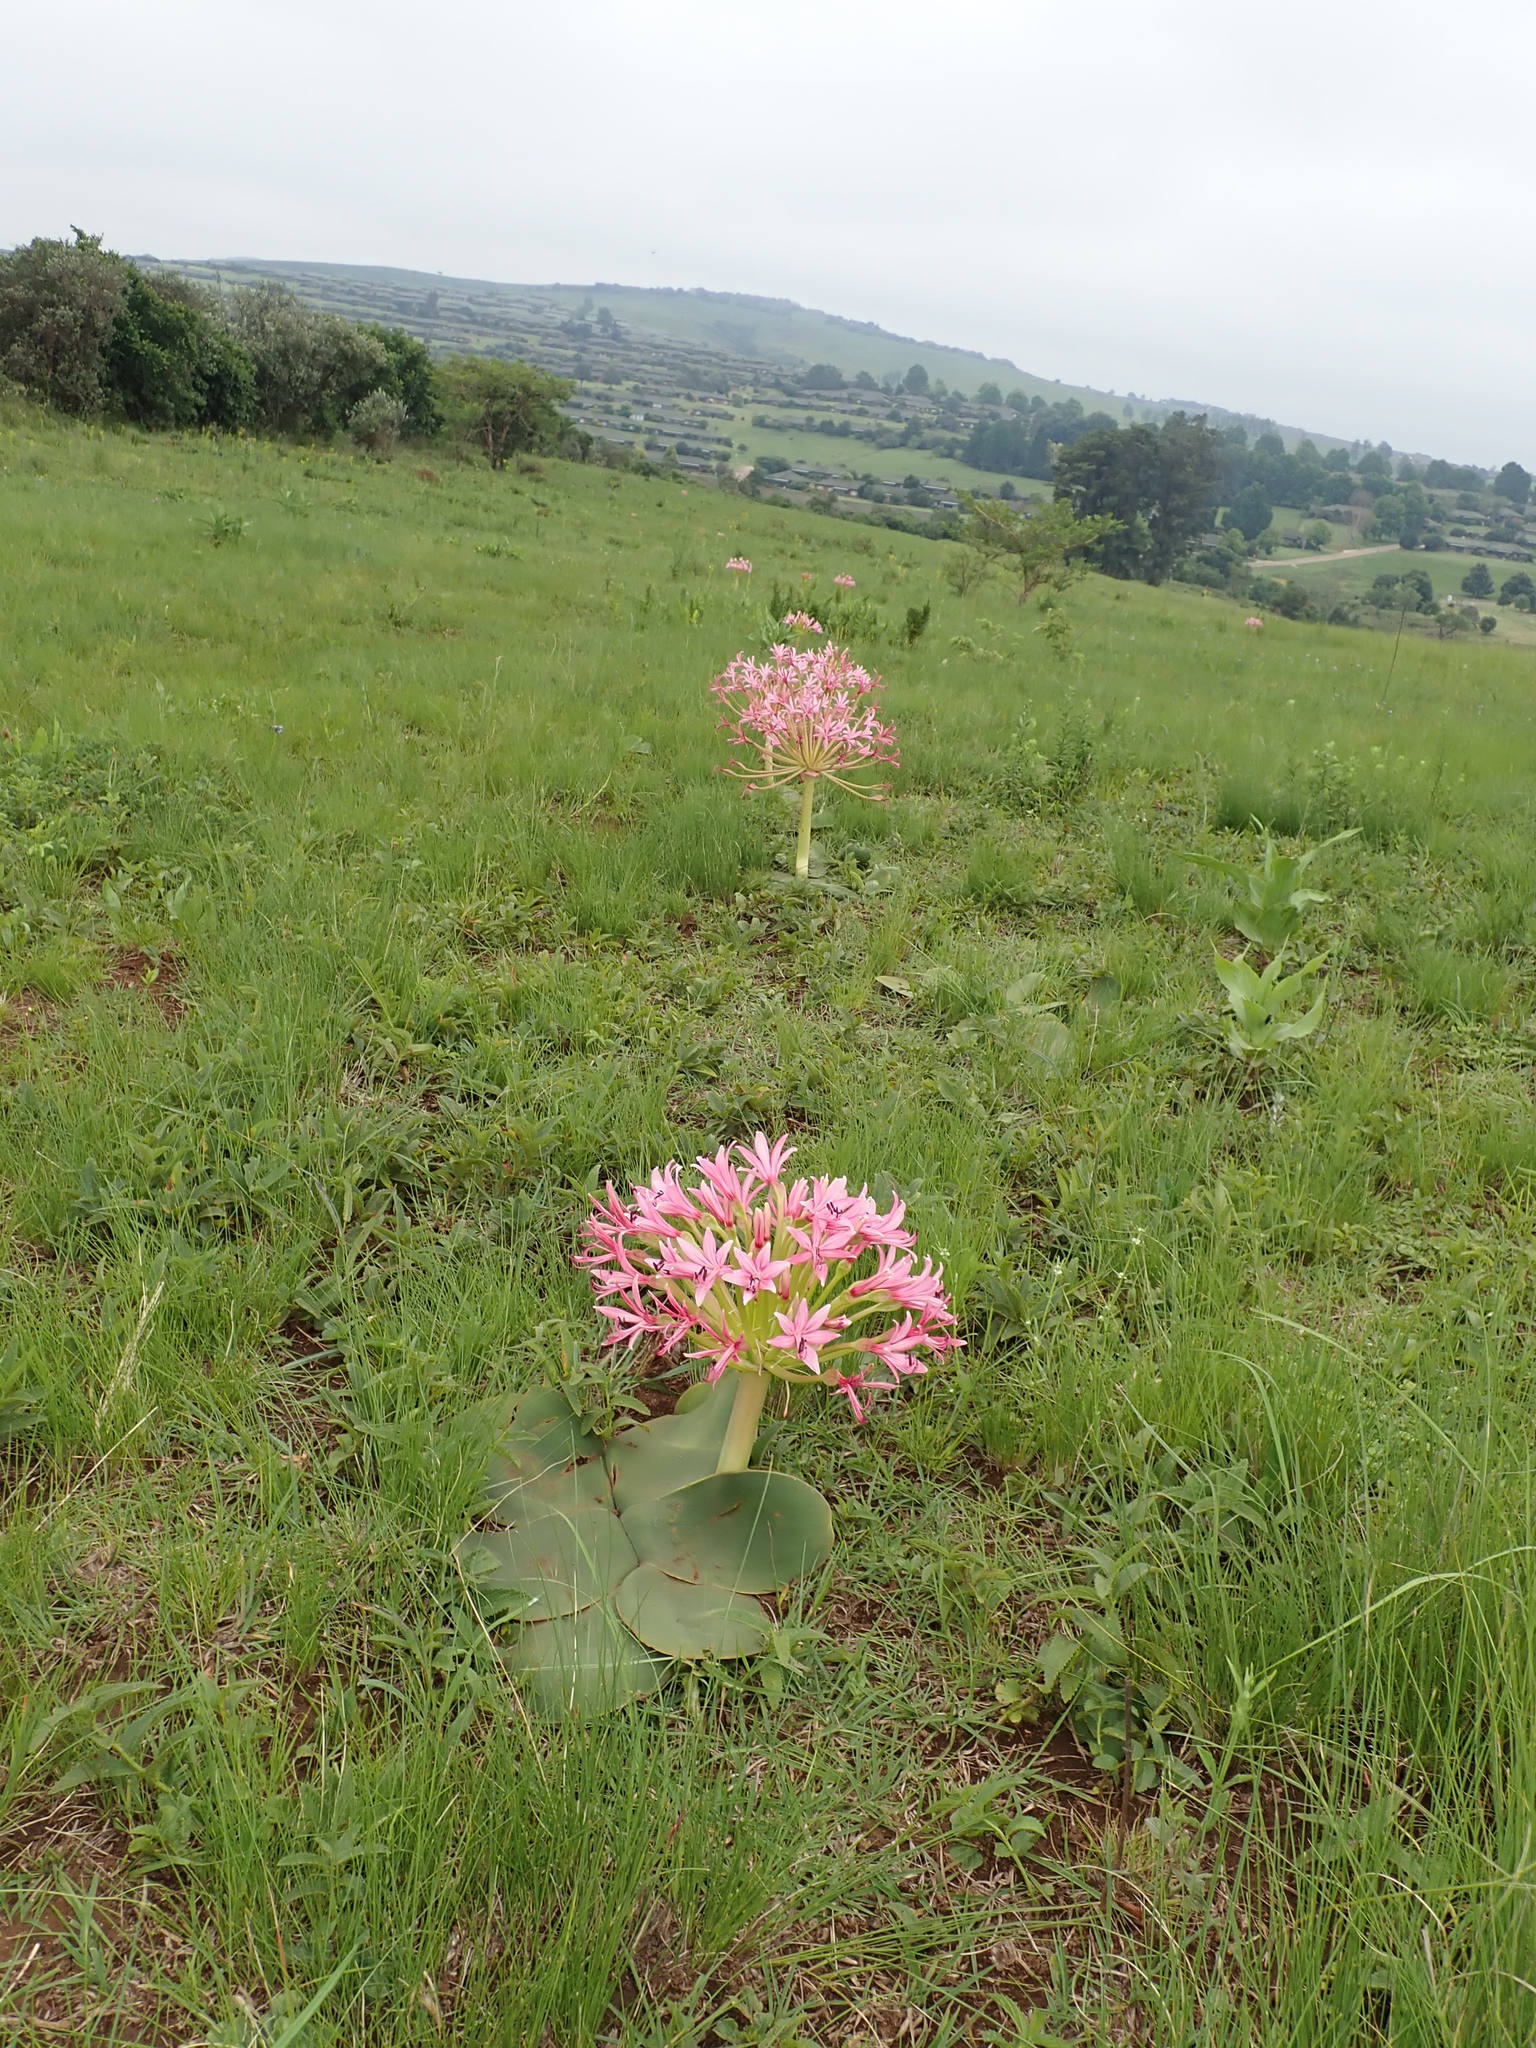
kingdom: Plantae
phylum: Tracheophyta
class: Liliopsida
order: Asparagales
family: Amaryllidaceae
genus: Brunsvigia
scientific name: Brunsvigia radulosa
